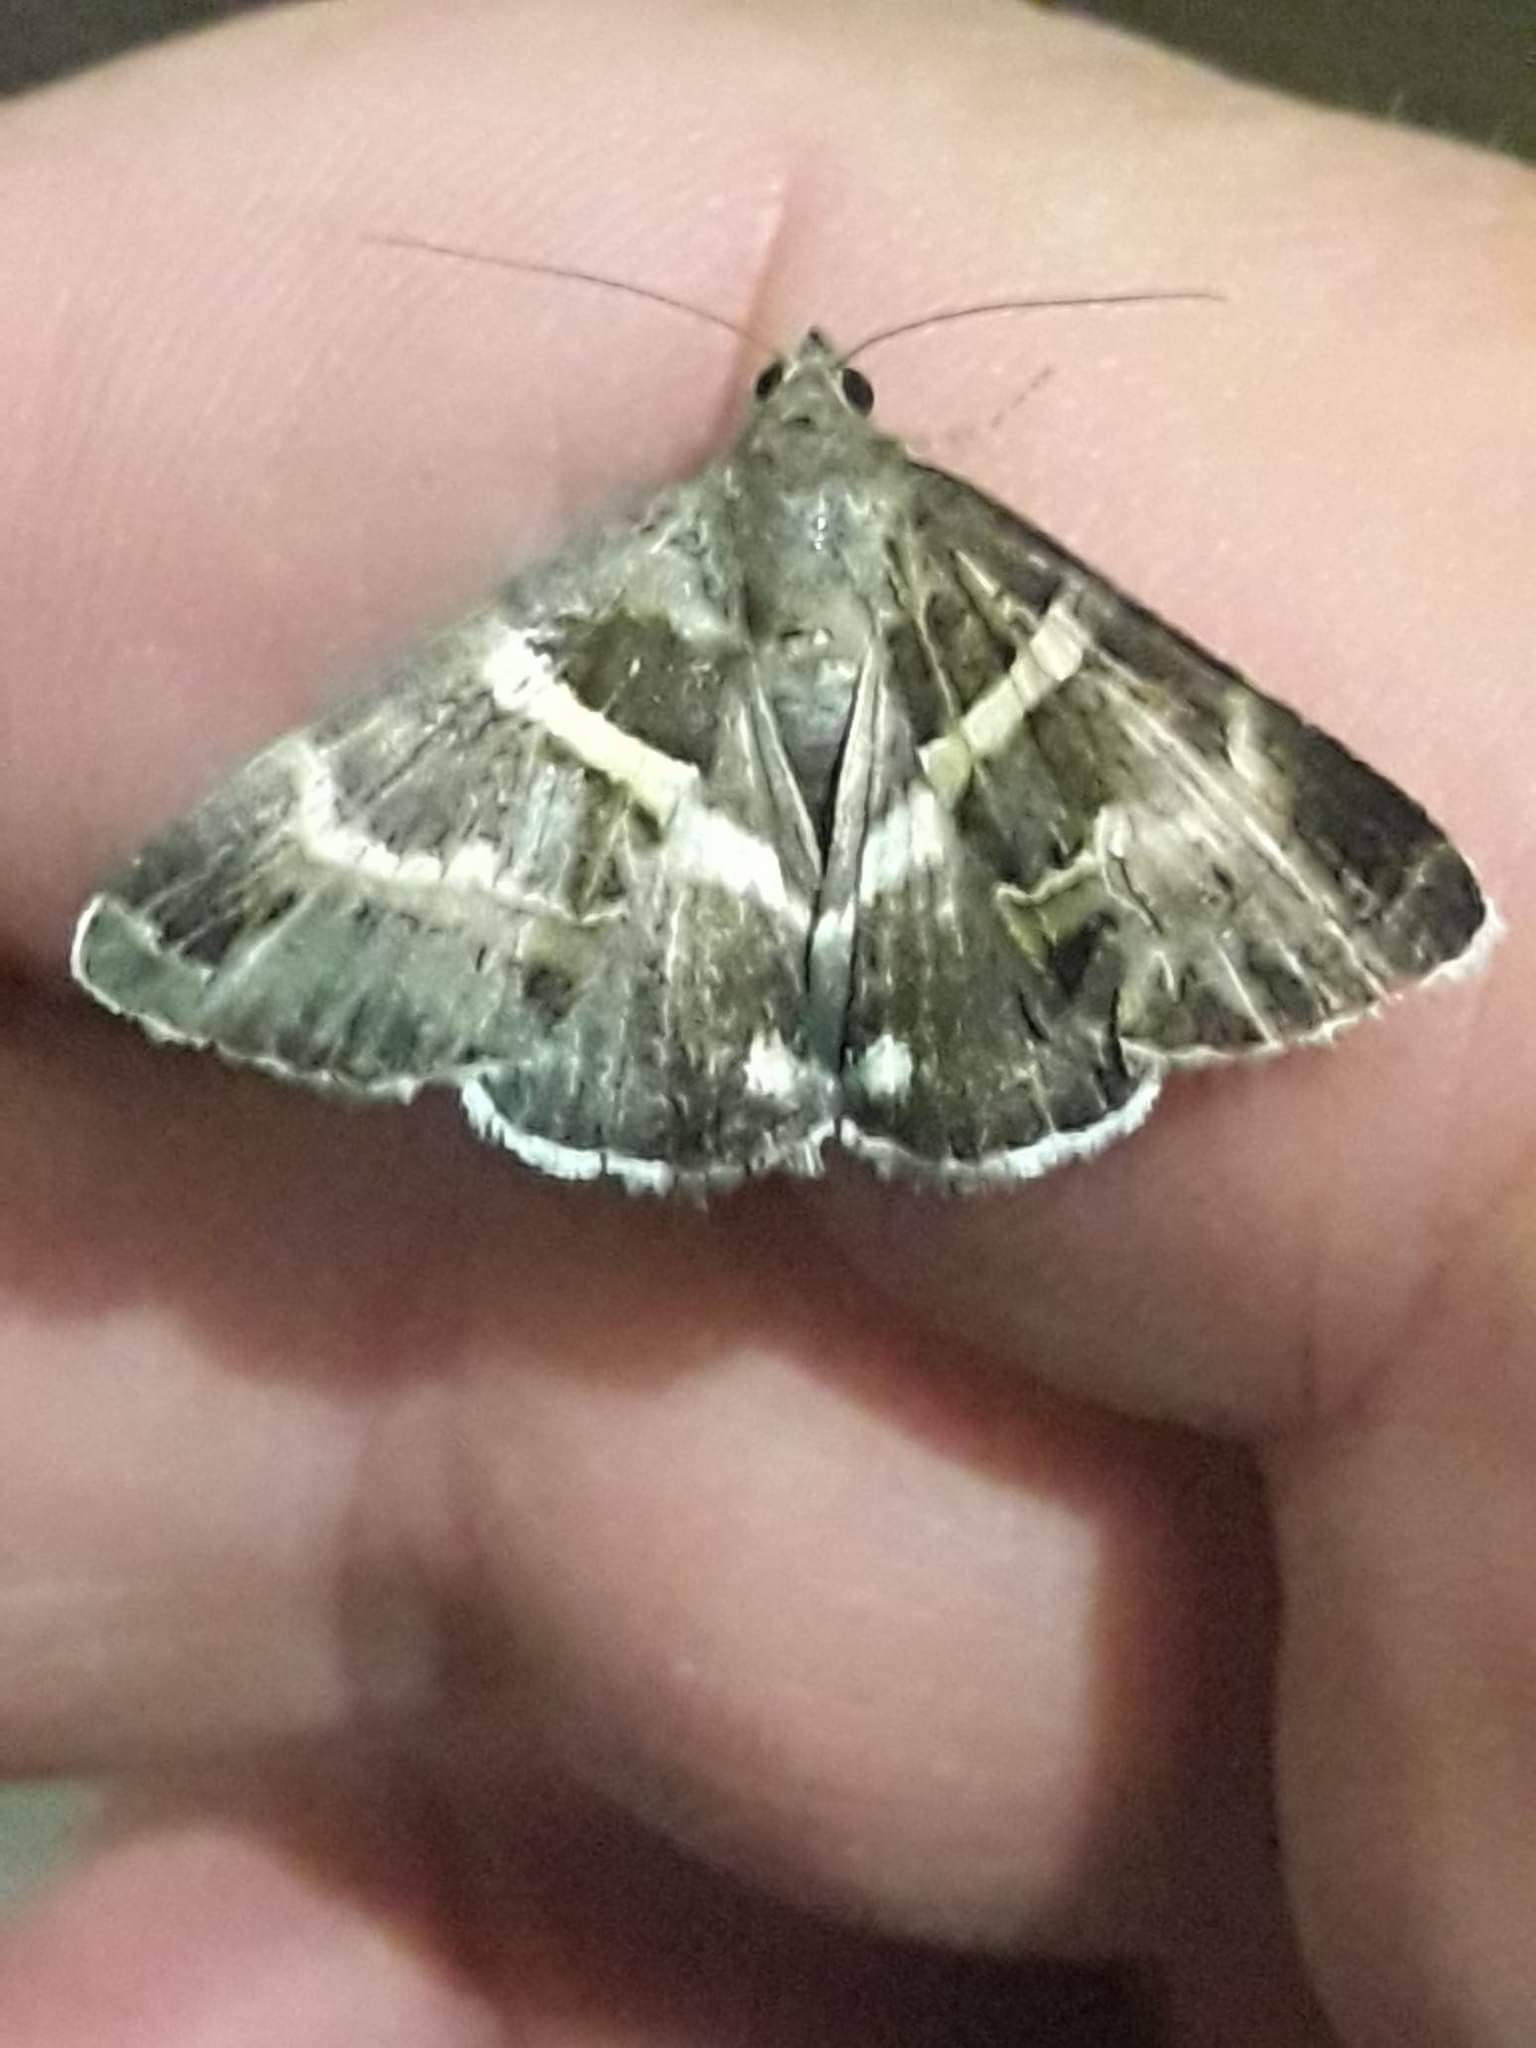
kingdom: Animalia
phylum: Arthropoda
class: Insecta
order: Lepidoptera
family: Erebidae
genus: Grammodes
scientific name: Grammodes stolida
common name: Geometrician
